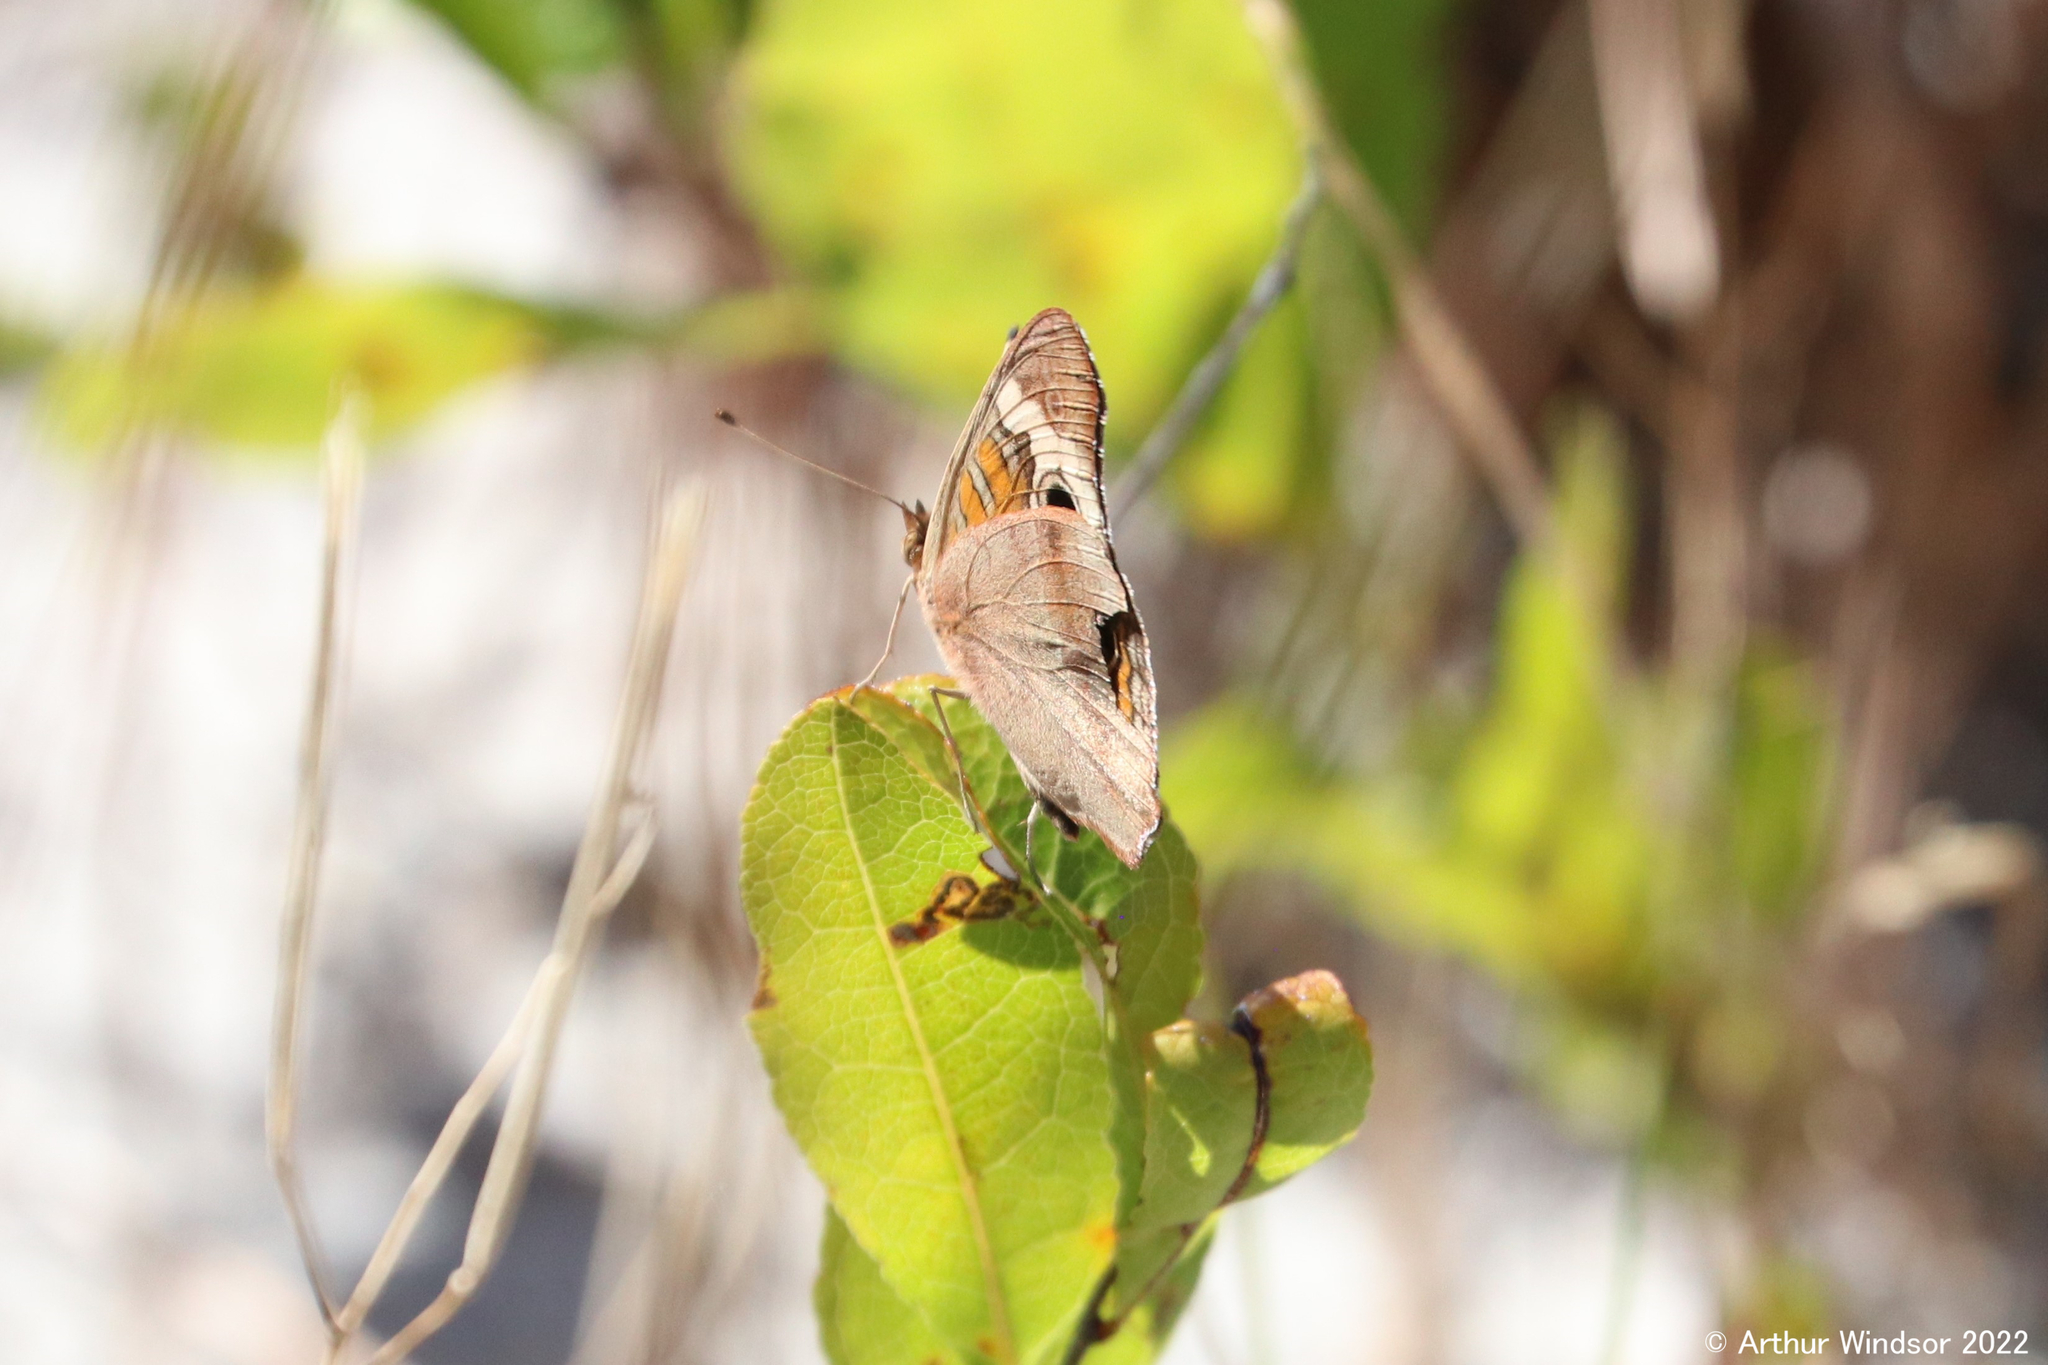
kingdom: Animalia
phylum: Arthropoda
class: Insecta
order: Lepidoptera
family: Nymphalidae
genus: Junonia
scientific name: Junonia coenia
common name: Common buckeye
